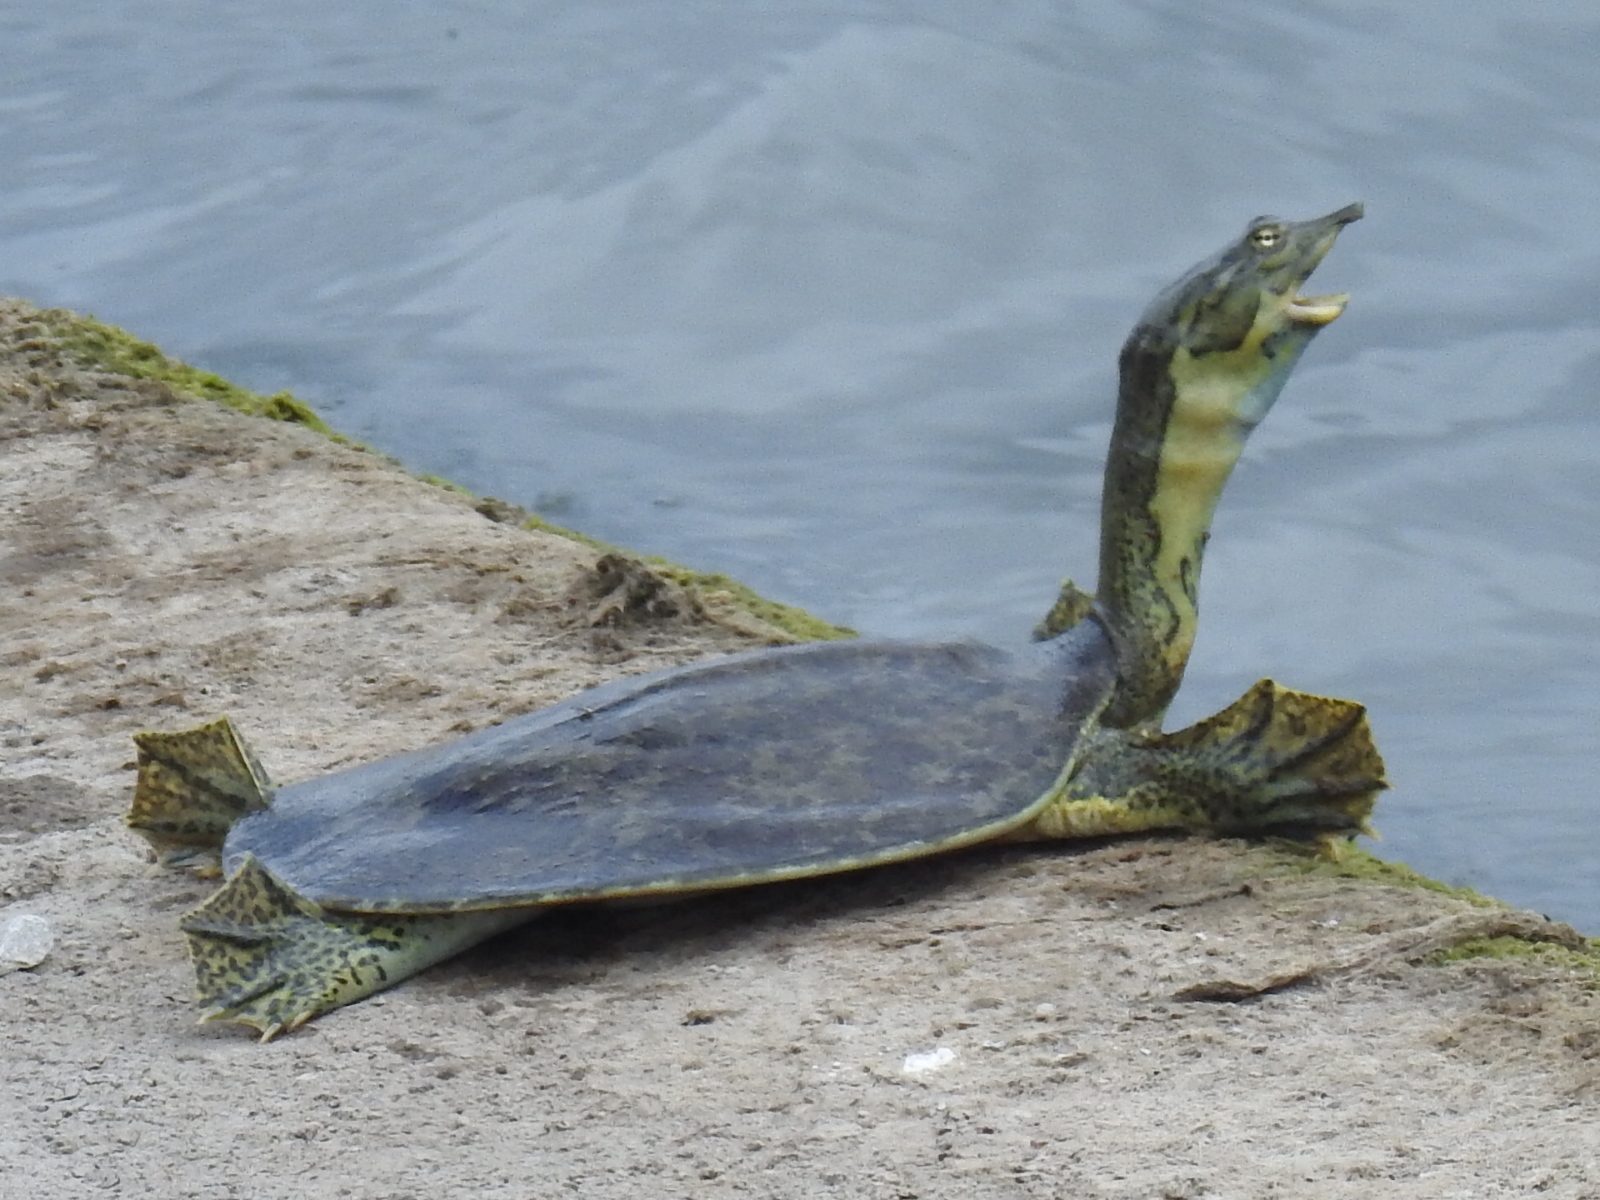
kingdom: Animalia
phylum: Chordata
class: Testudines
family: Trionychidae
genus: Apalone
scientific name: Apalone spinifera
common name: Spiny softshell turtle
